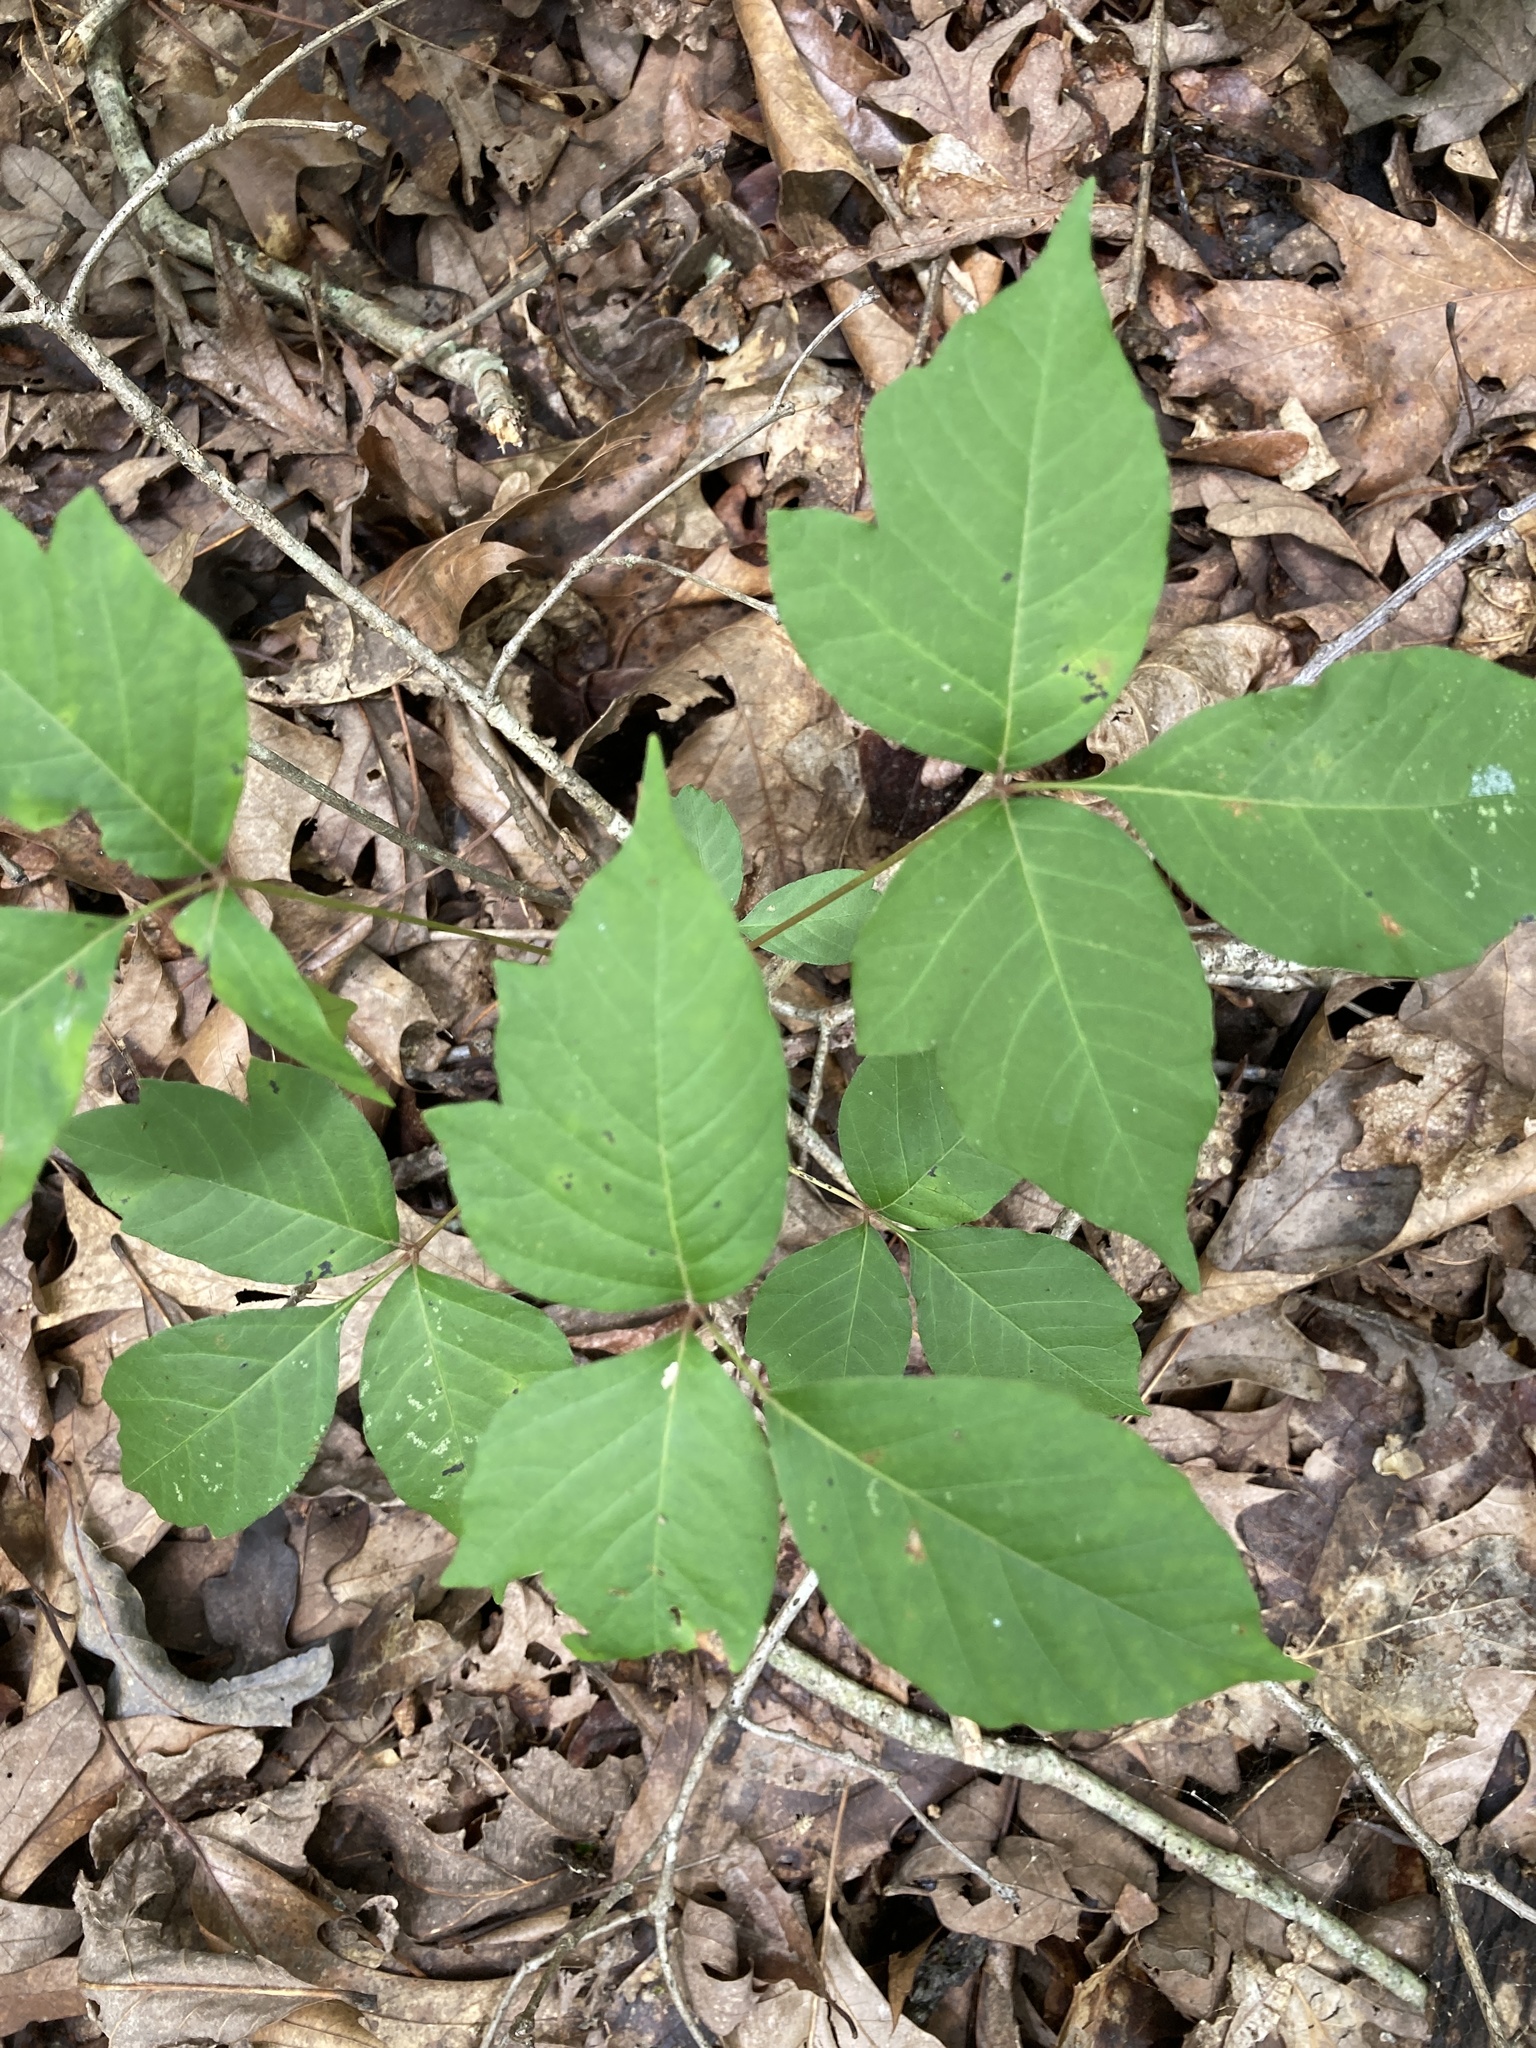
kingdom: Plantae
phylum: Tracheophyta
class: Magnoliopsida
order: Sapindales
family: Anacardiaceae
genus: Toxicodendron
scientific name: Toxicodendron radicans
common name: Poison ivy
